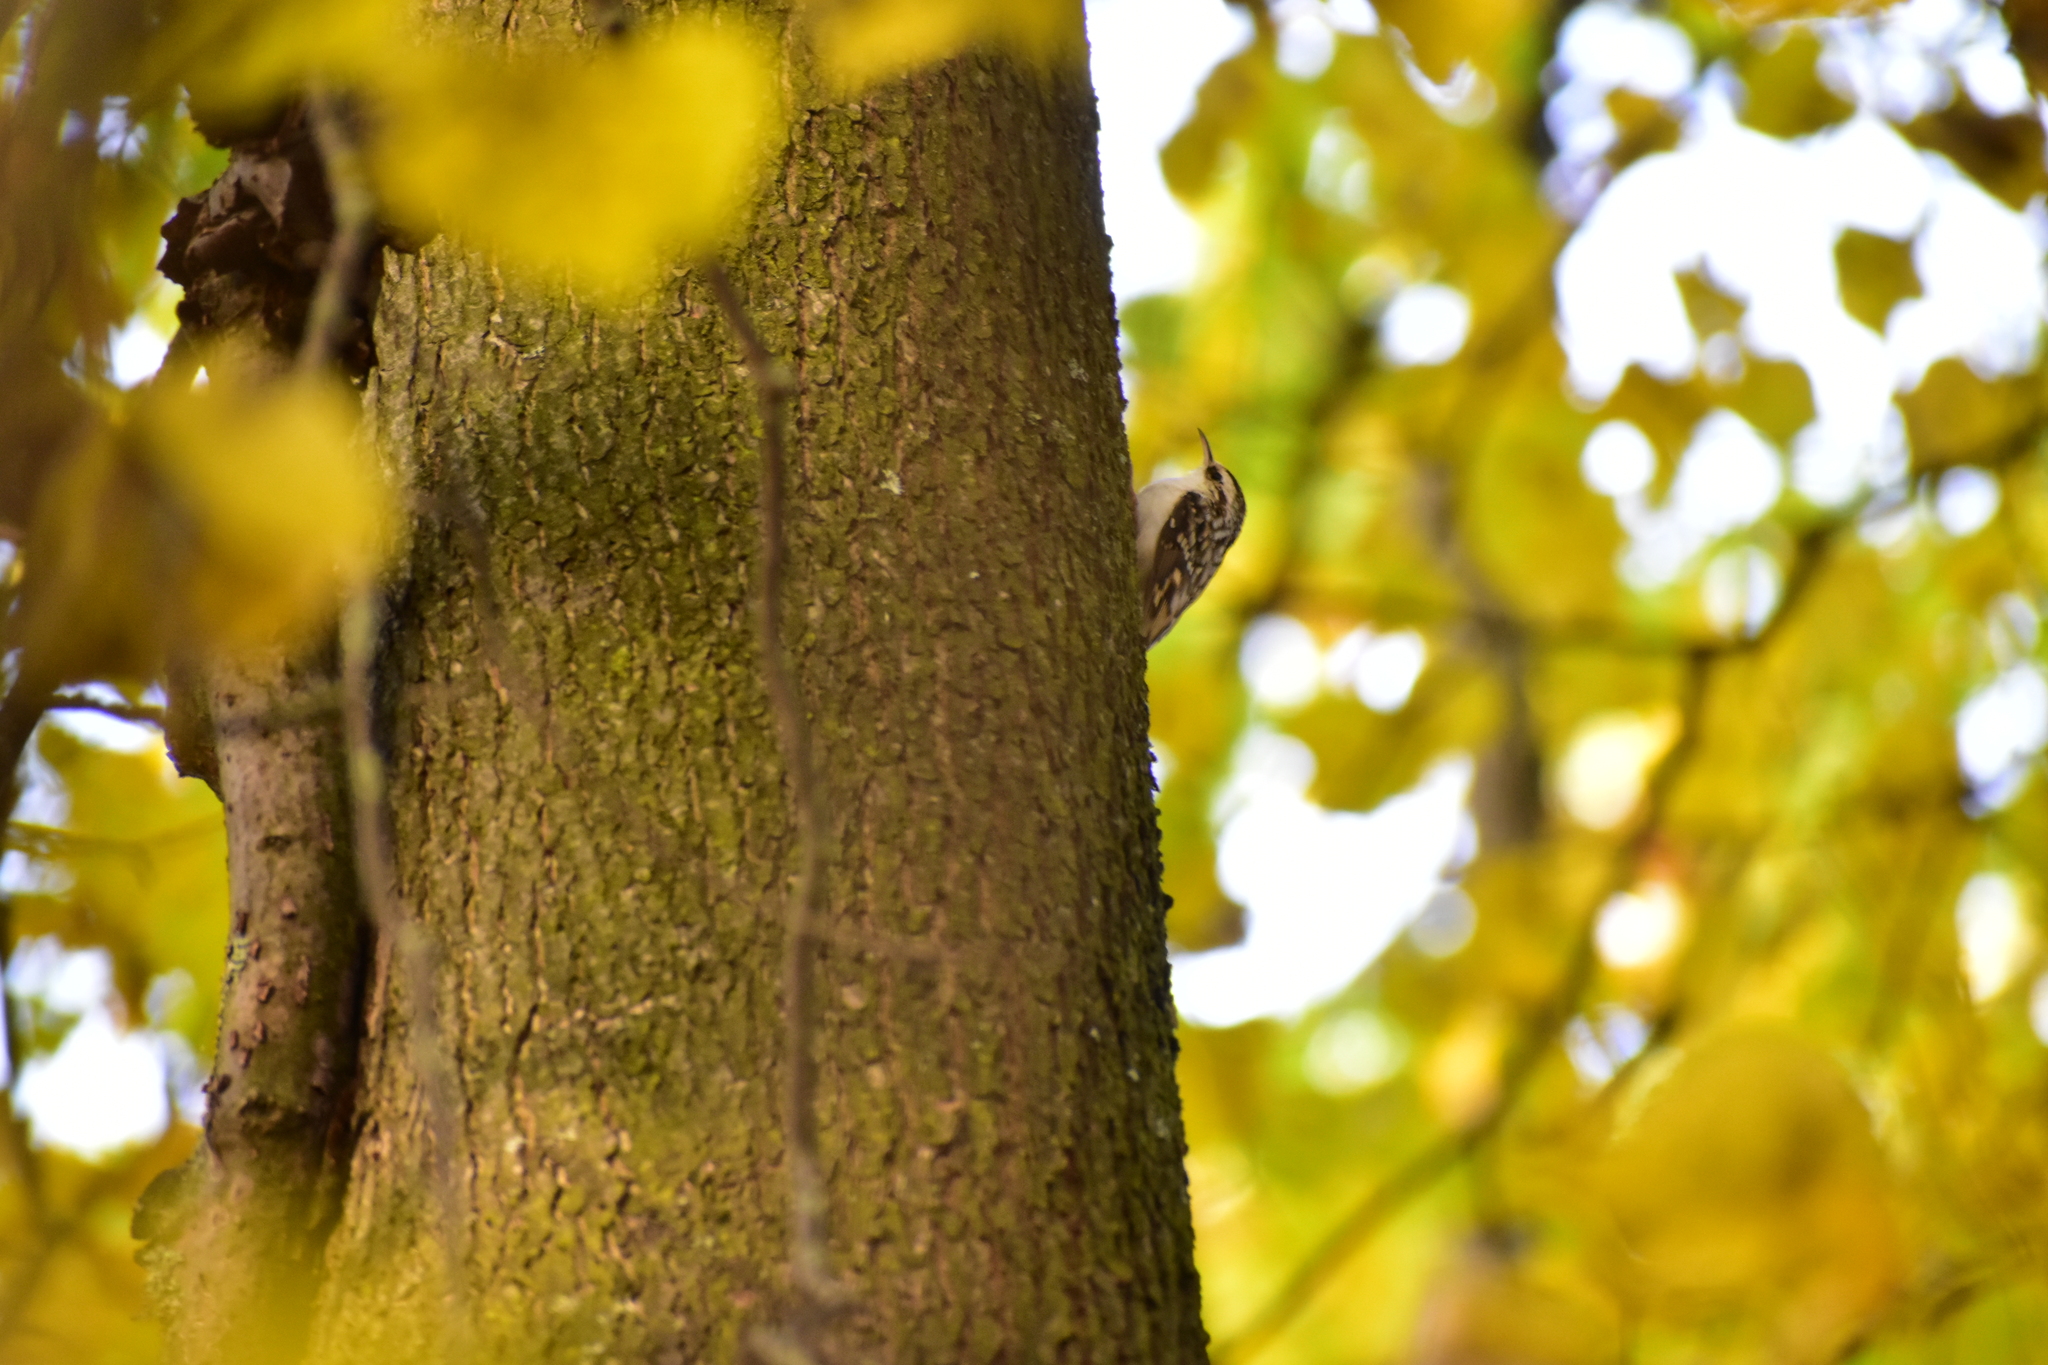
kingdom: Animalia
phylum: Chordata
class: Aves
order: Passeriformes
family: Certhiidae
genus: Certhia
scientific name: Certhia familiaris
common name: Eurasian treecreeper
